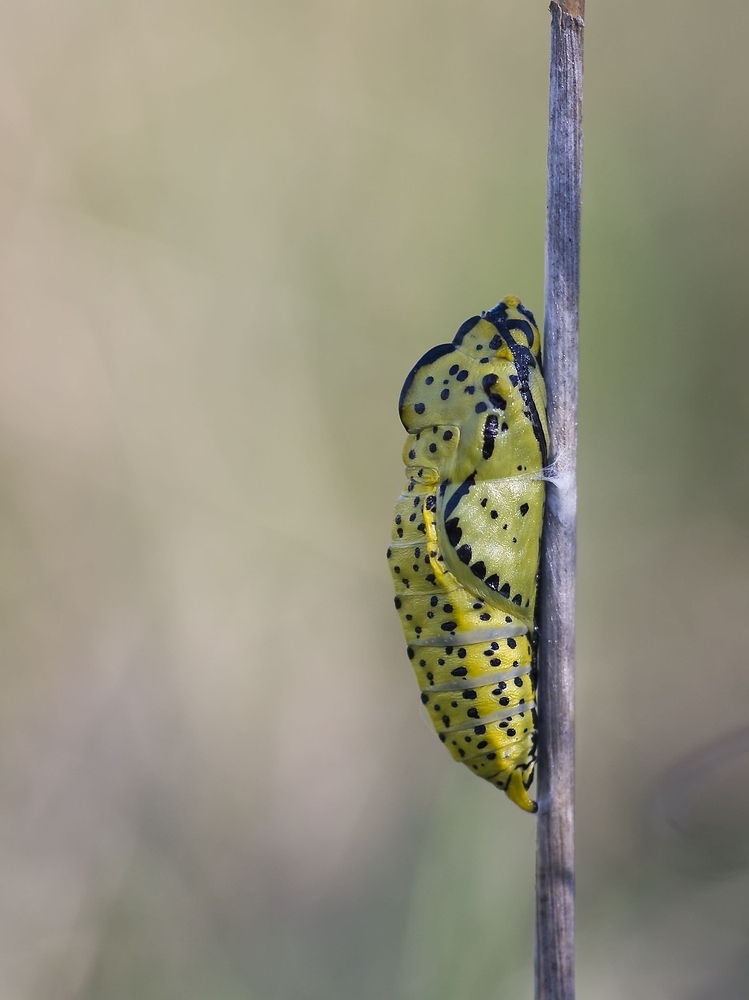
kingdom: Animalia
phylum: Arthropoda
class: Insecta
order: Lepidoptera
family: Pieridae
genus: Aporia
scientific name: Aporia crataegi
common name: Black-veined white
